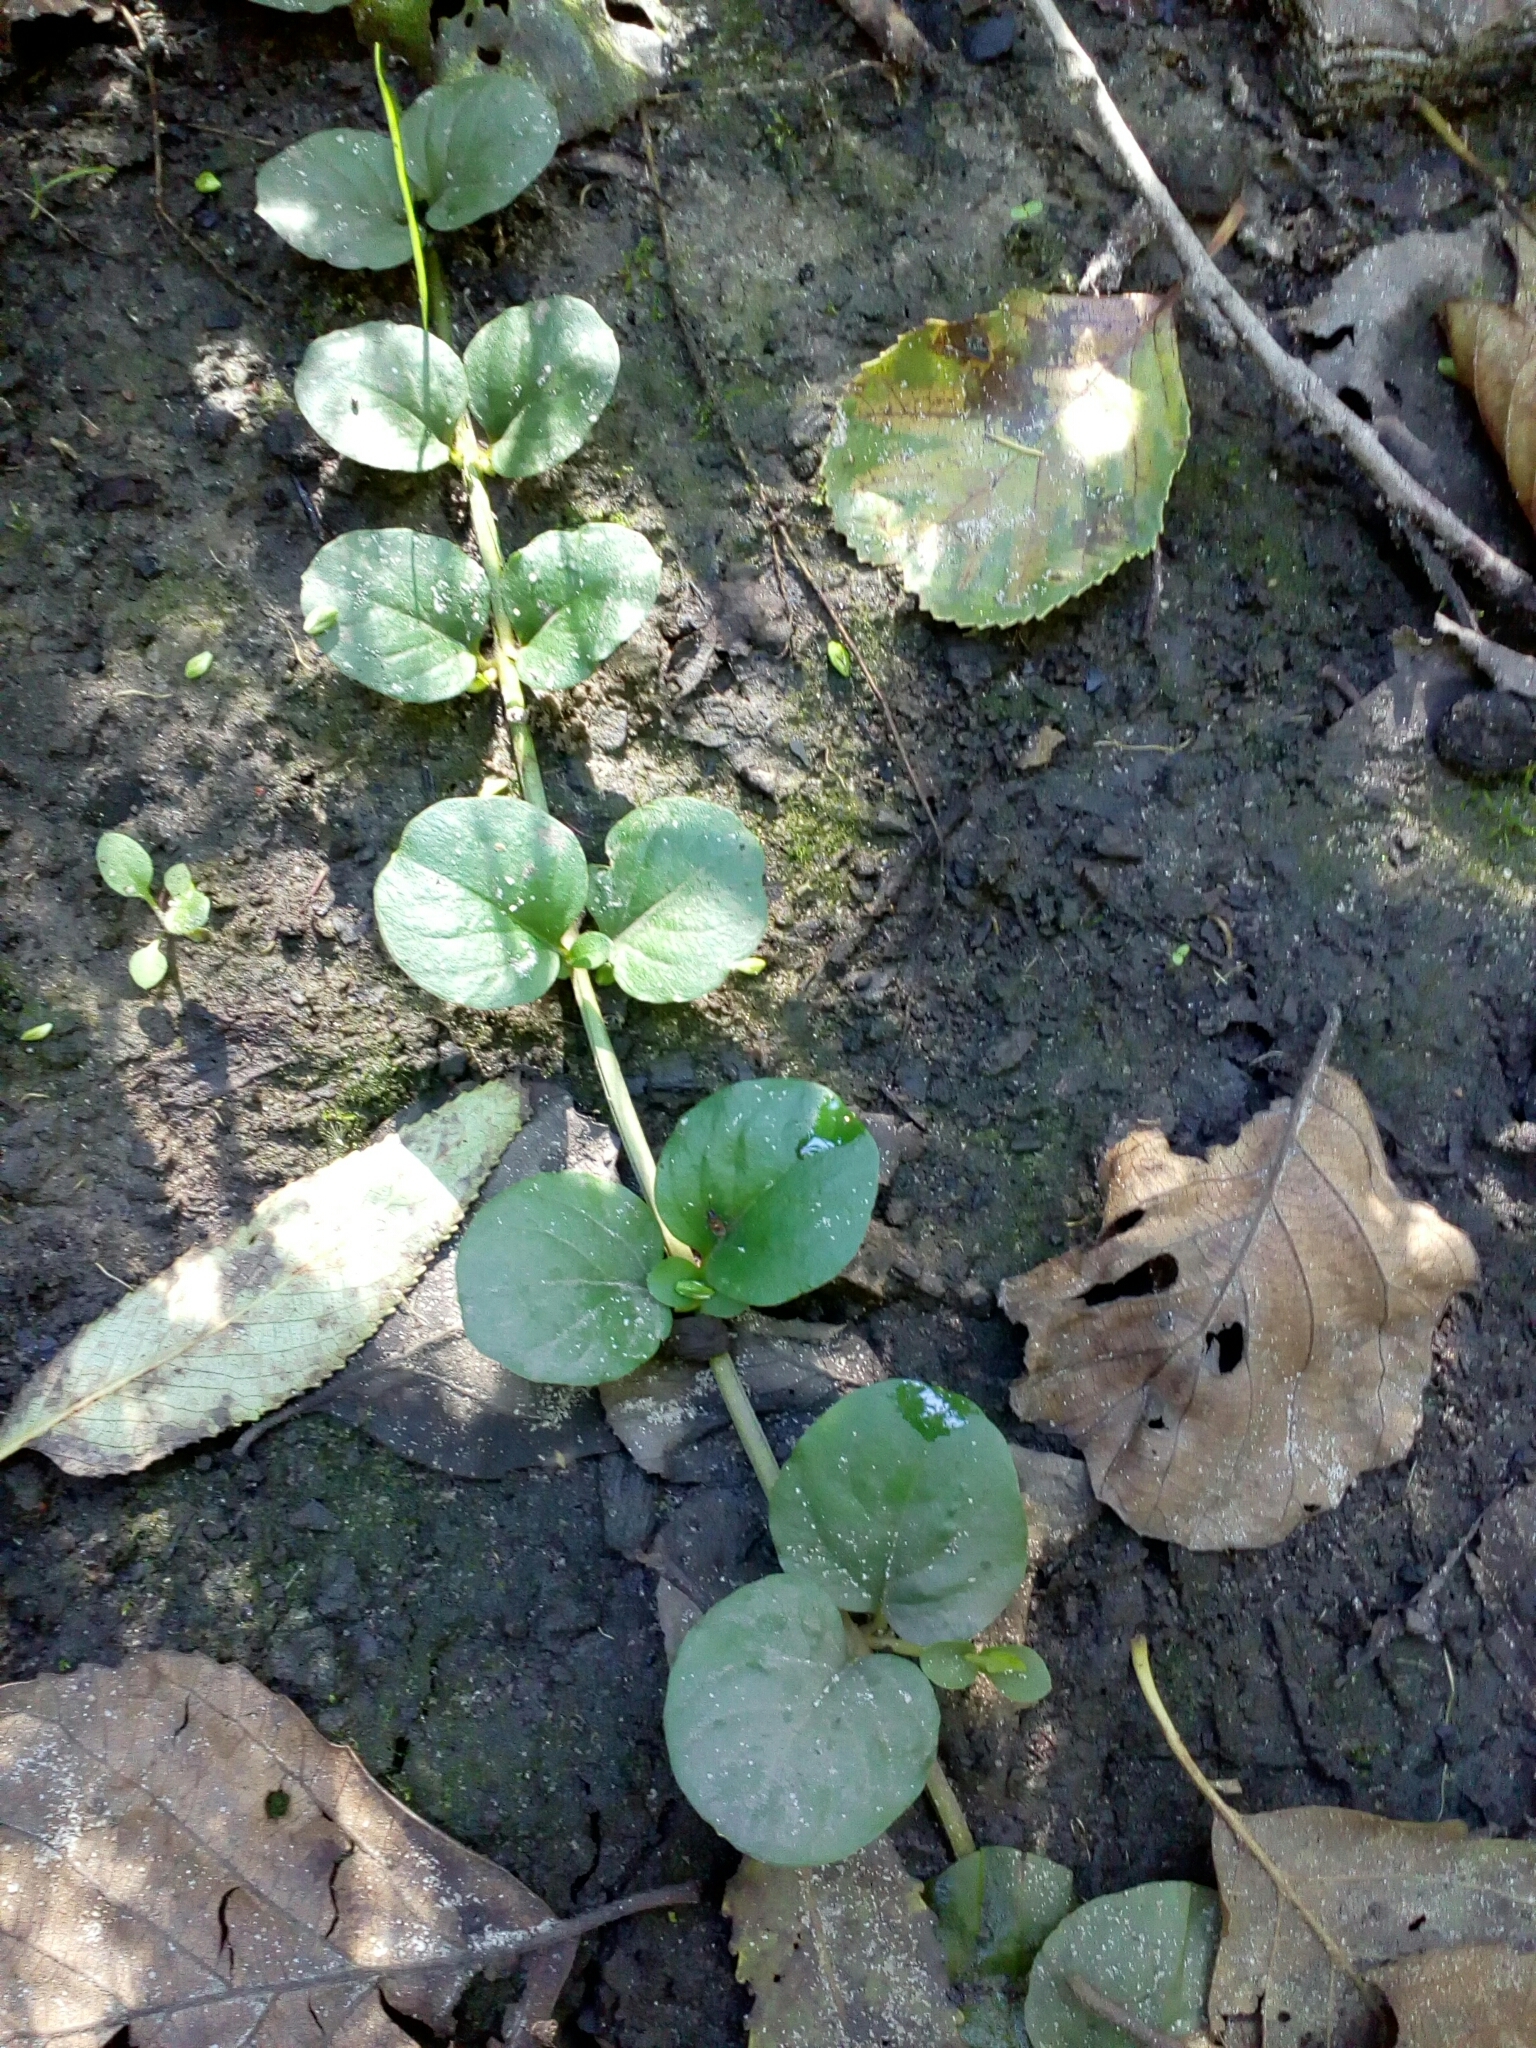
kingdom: Plantae
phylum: Tracheophyta
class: Magnoliopsida
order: Ericales
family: Primulaceae
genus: Lysimachia
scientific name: Lysimachia nummularia
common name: Moneywort
